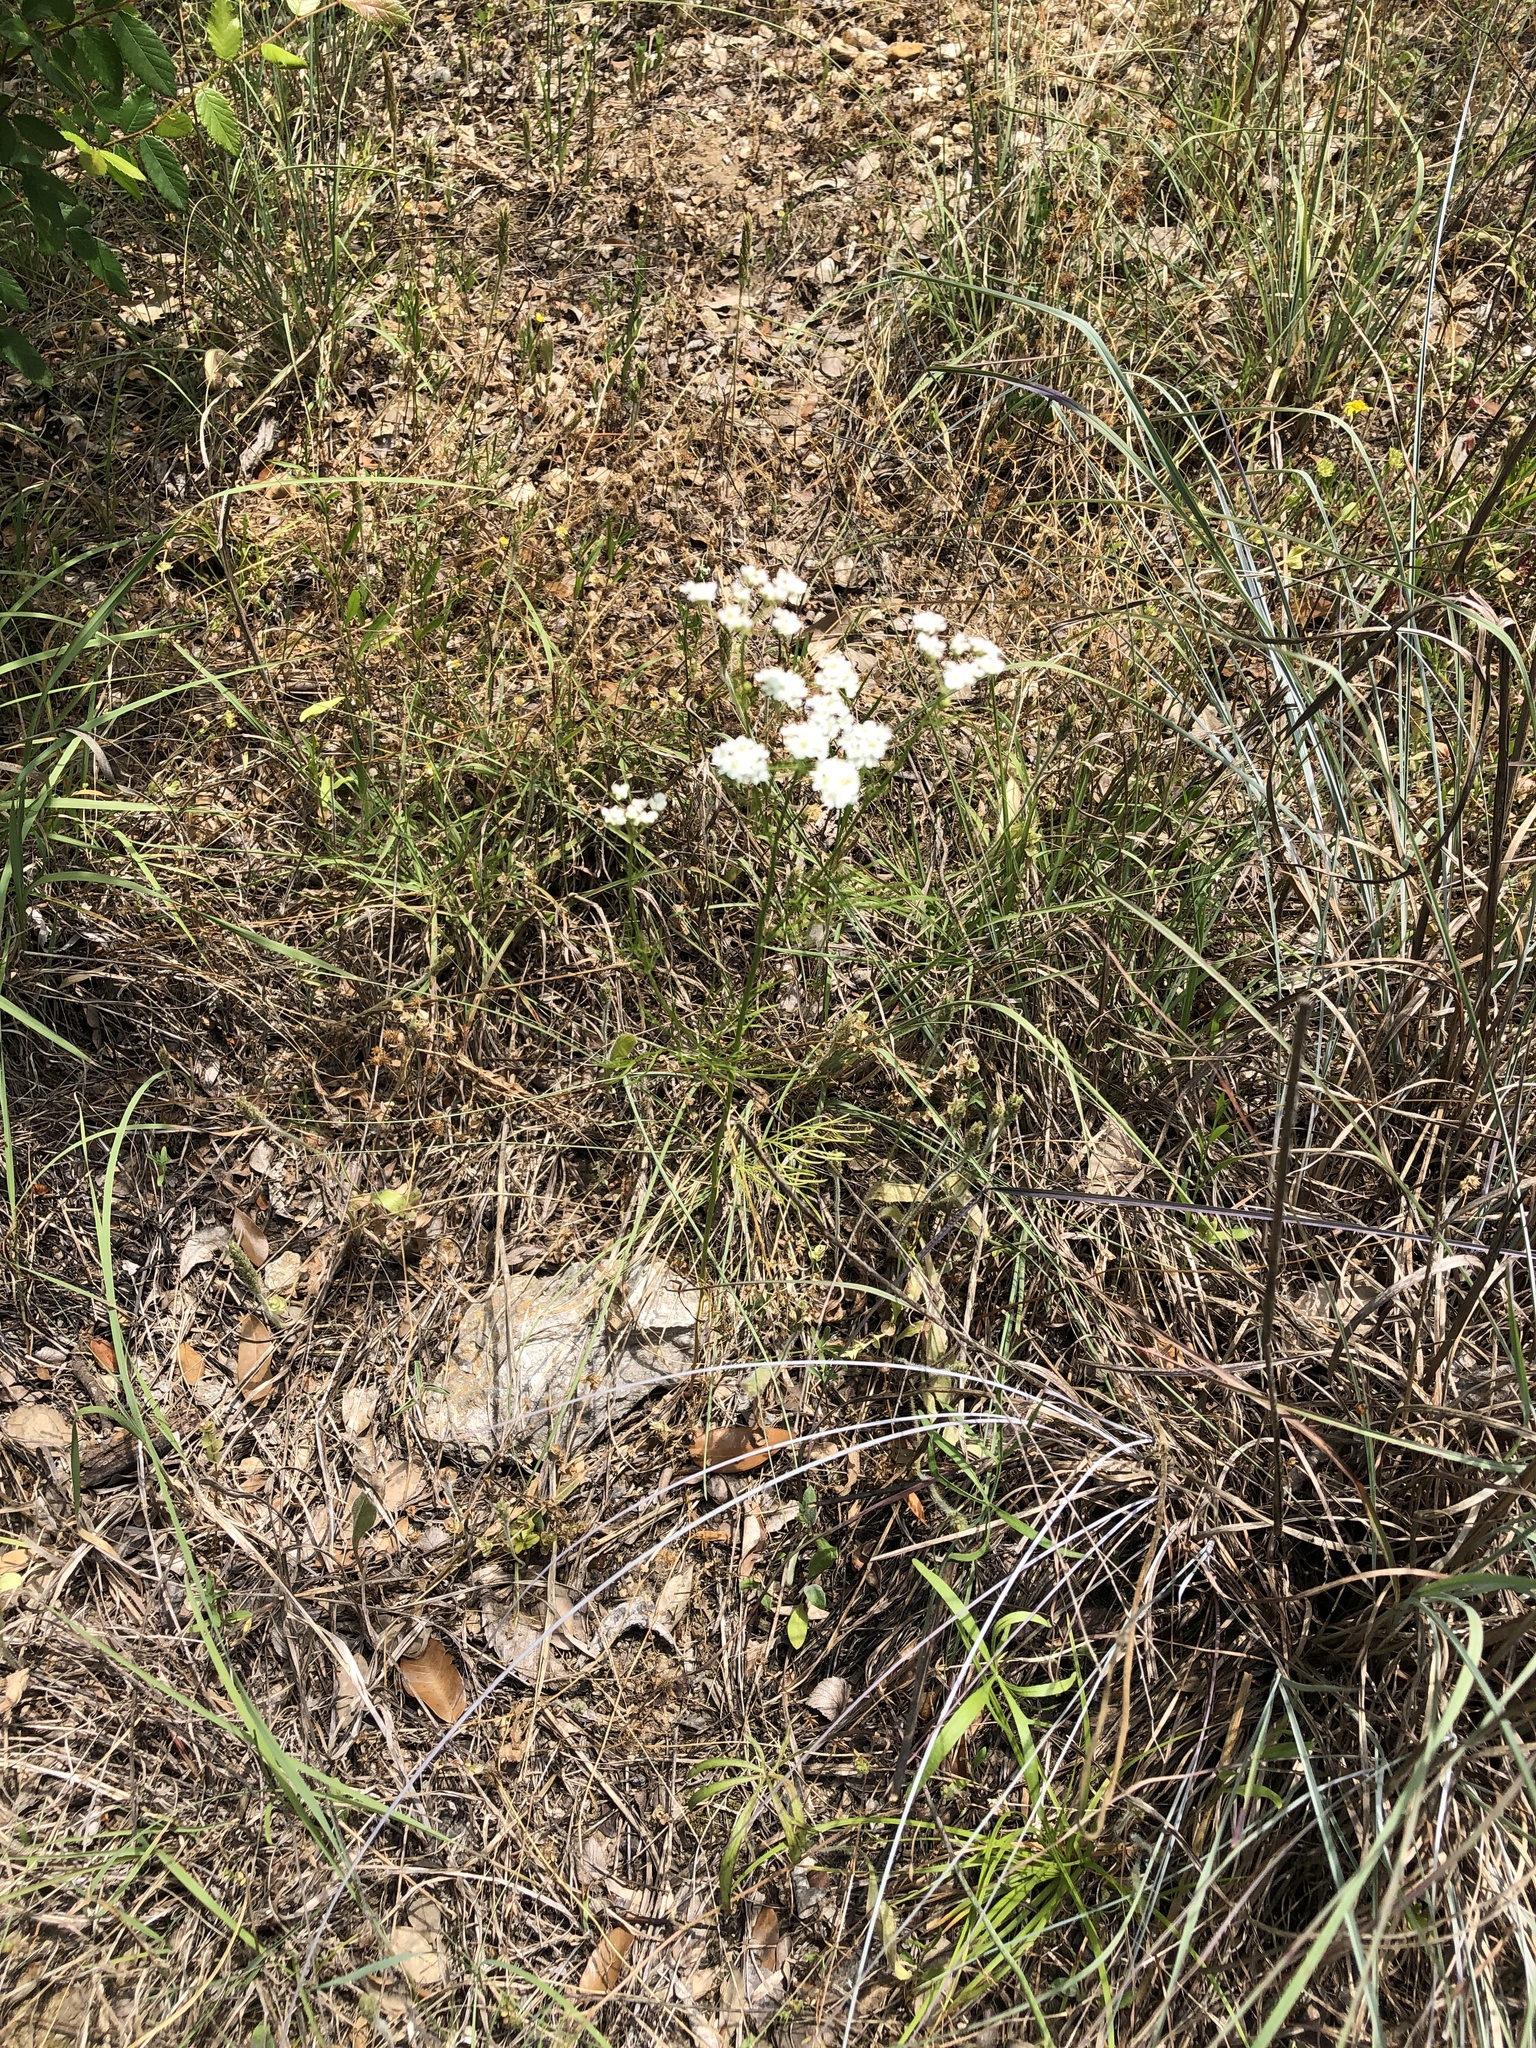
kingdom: Plantae
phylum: Tracheophyta
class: Magnoliopsida
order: Apiales
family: Apiaceae
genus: Atrema
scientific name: Atrema americanum
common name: Prairie-bishop
